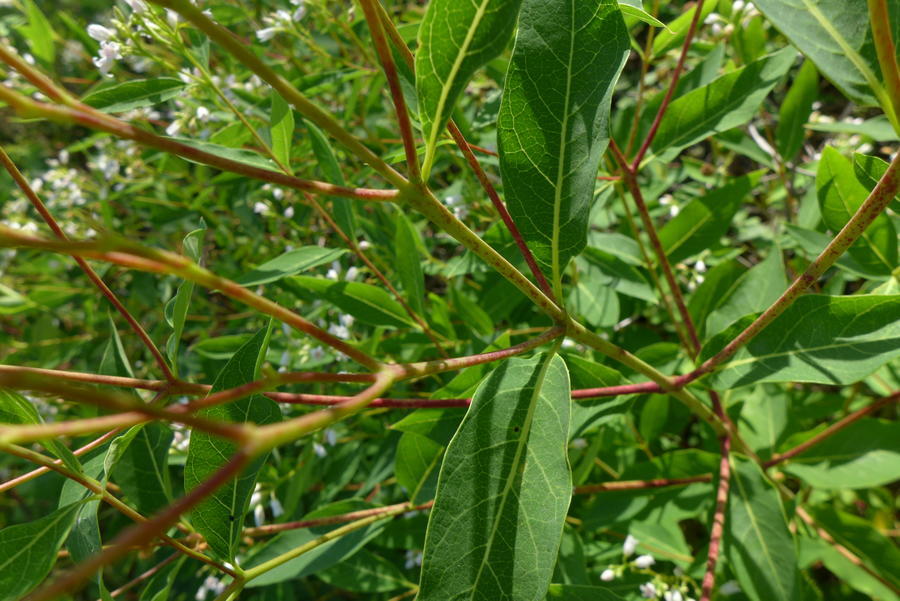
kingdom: Plantae
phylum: Tracheophyta
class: Magnoliopsida
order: Gentianales
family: Apocynaceae
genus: Apocynum
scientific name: Apocynum cannabinum
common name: Hemp dogbane
